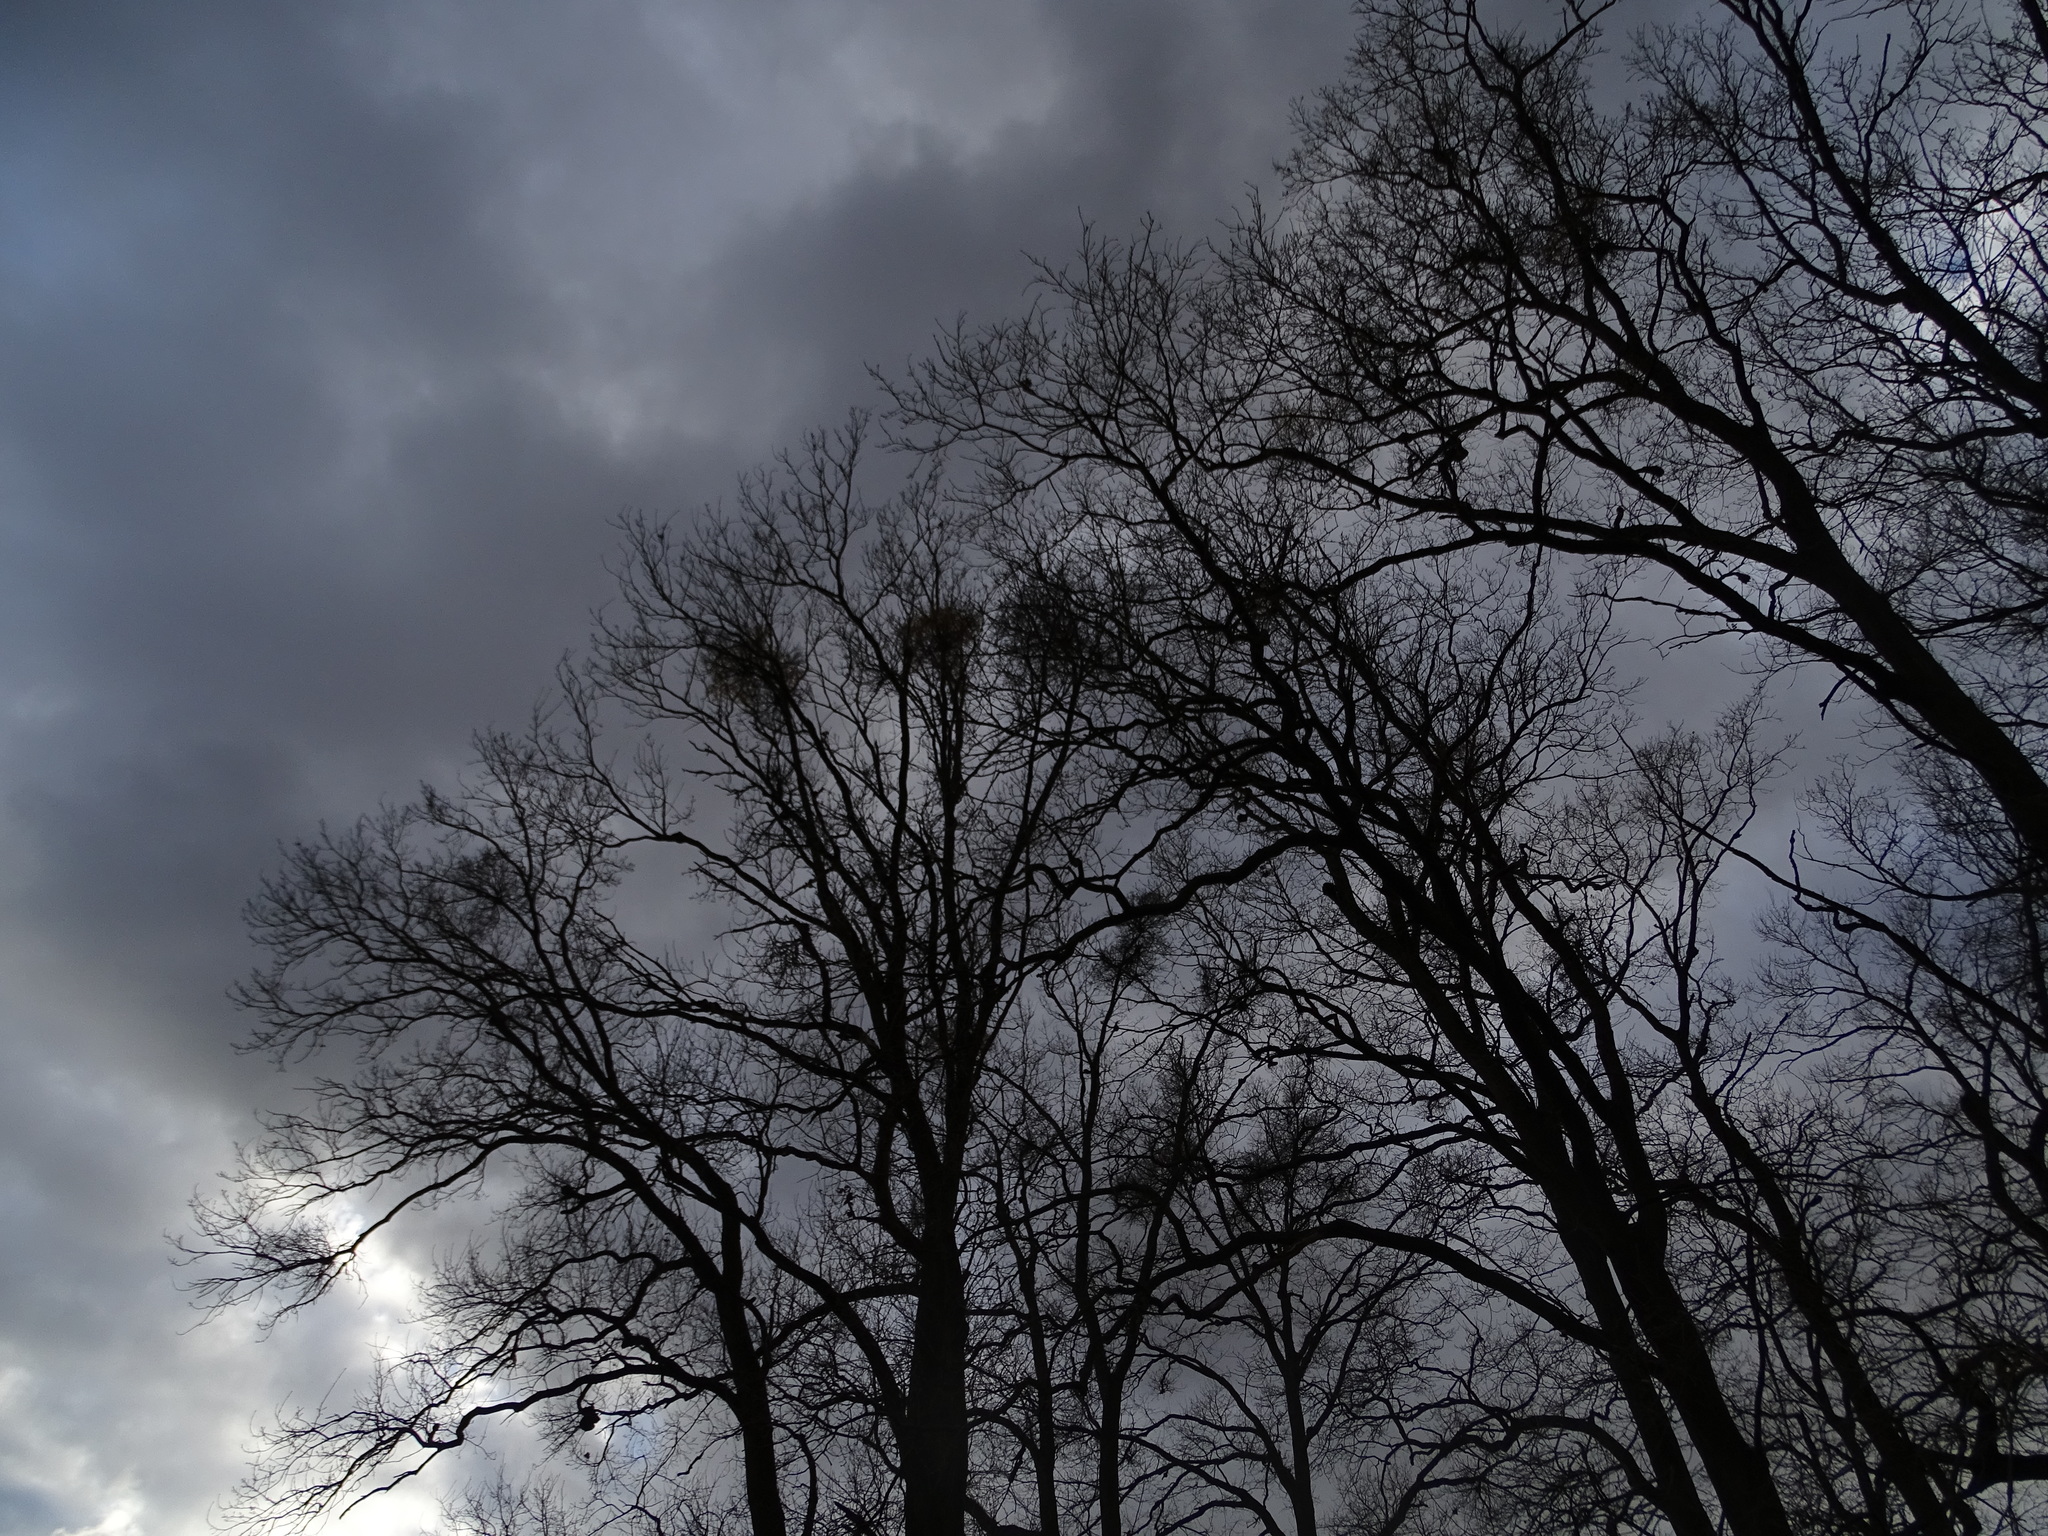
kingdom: Plantae
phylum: Tracheophyta
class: Magnoliopsida
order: Santalales
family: Loranthaceae
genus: Loranthus
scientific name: Loranthus europaeus
